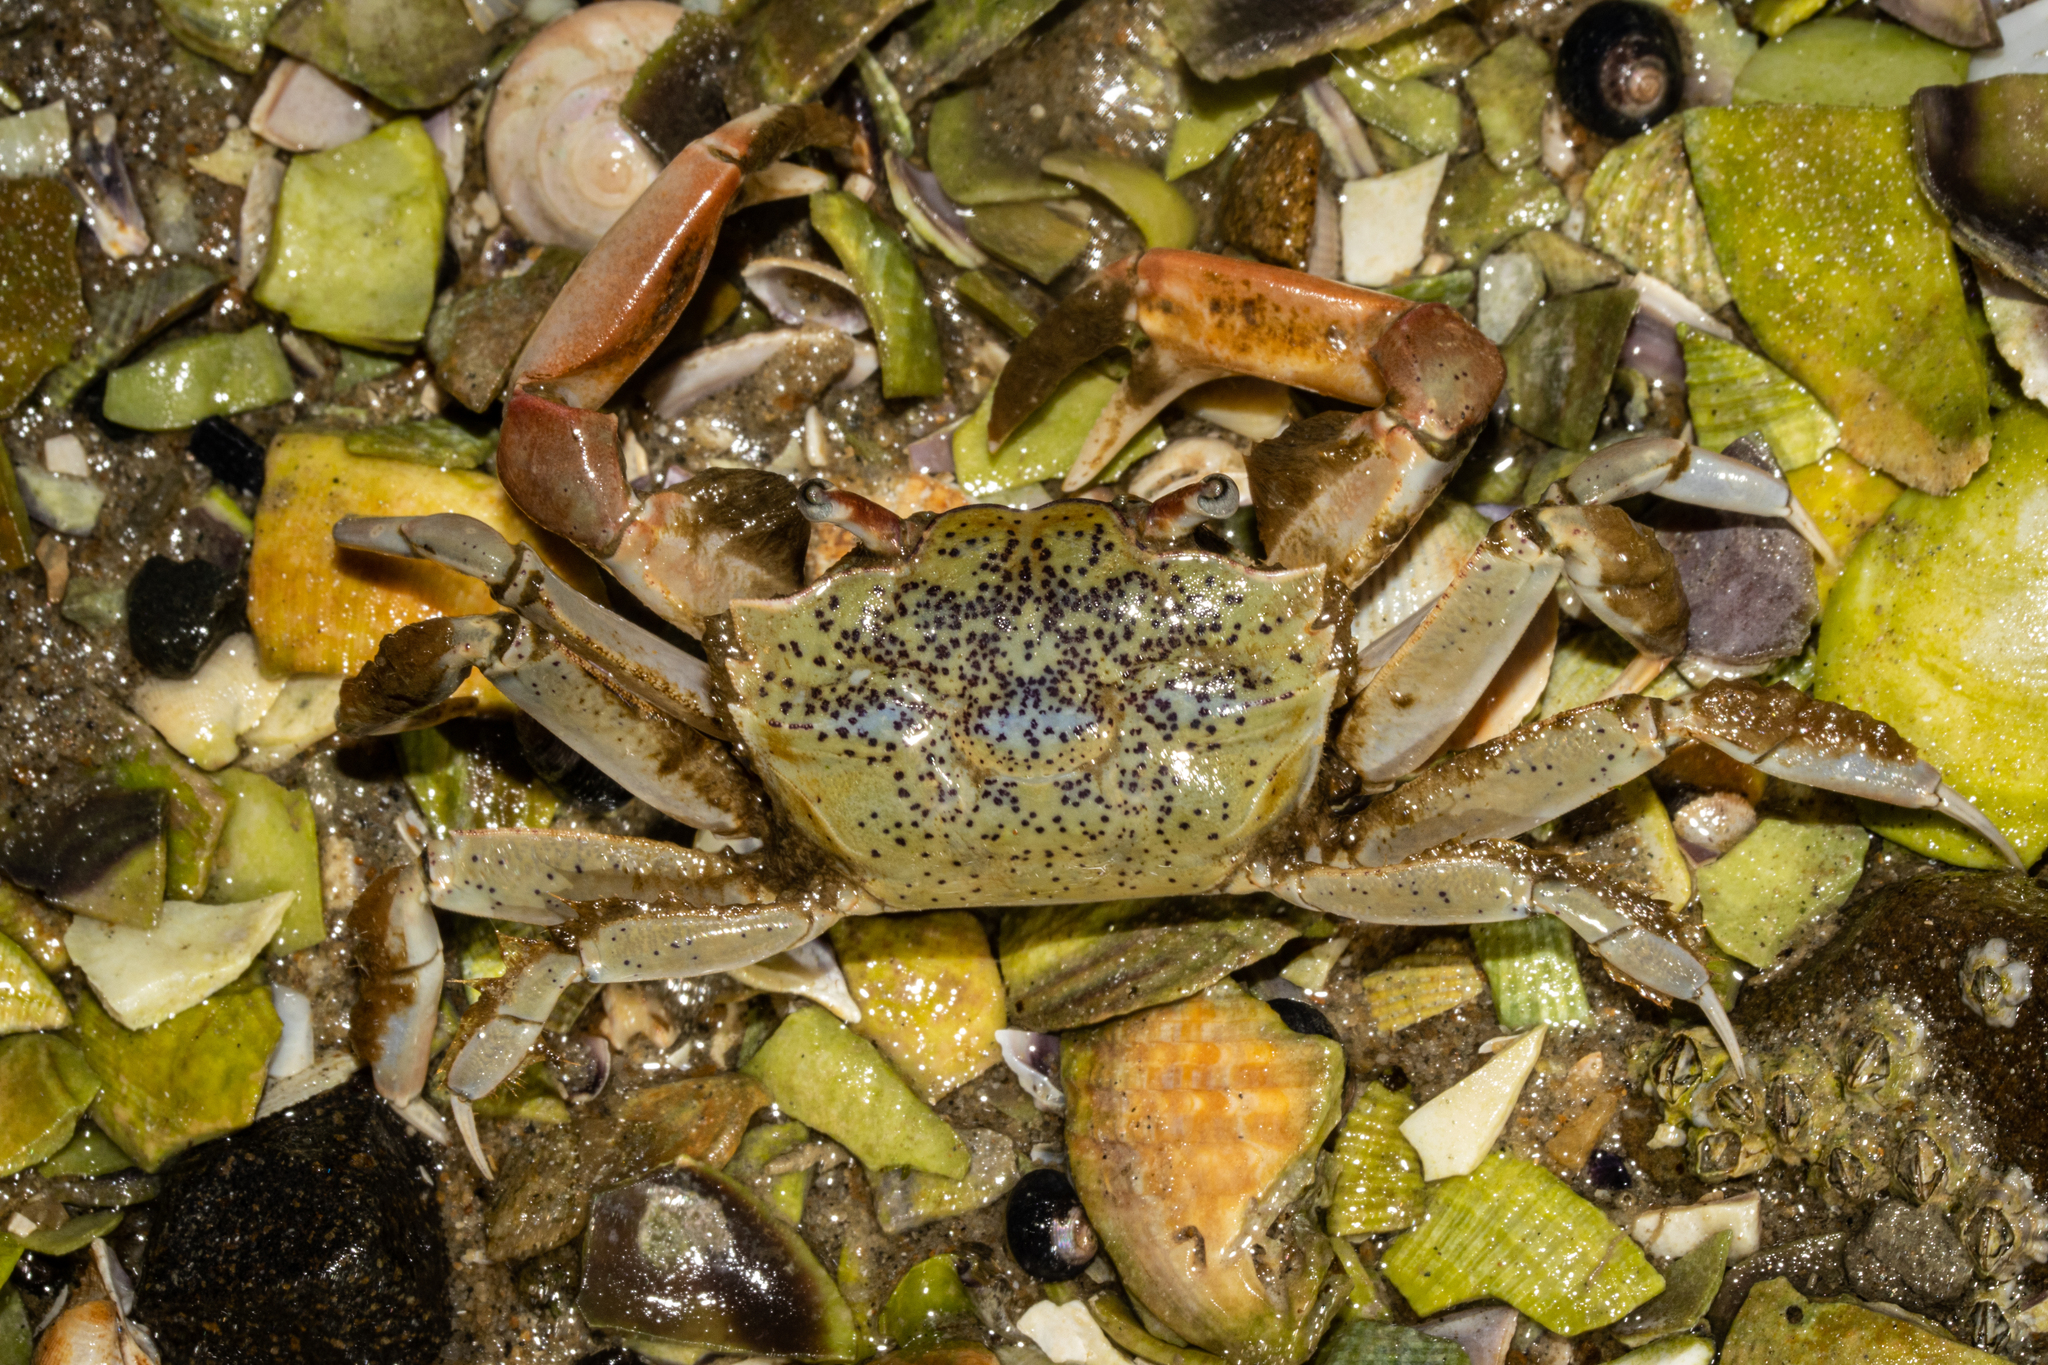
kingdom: Animalia
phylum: Arthropoda
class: Malacostraca
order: Decapoda
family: Macrophthalmidae
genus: Hemiplax
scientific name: Hemiplax hirtipes
